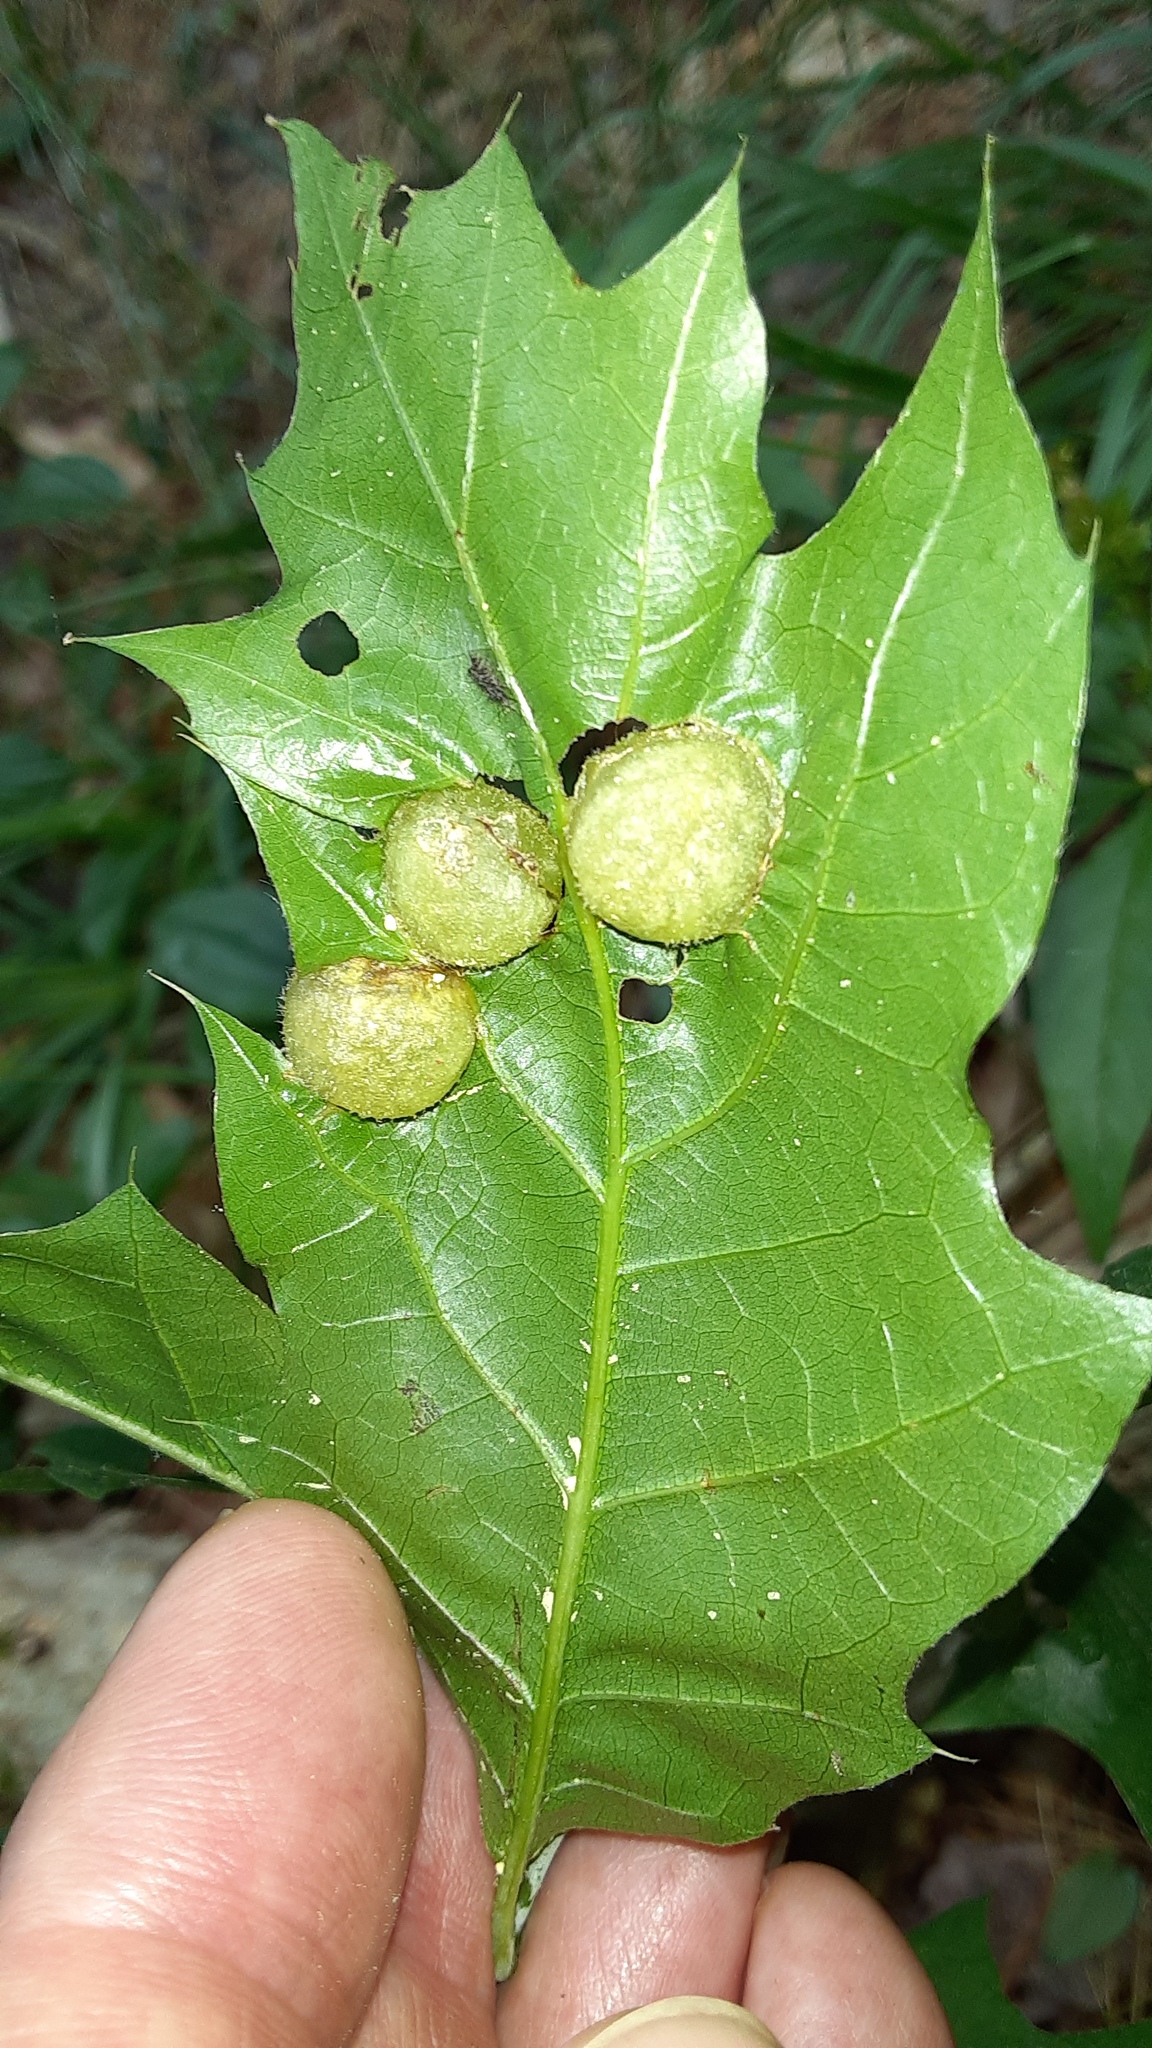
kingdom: Animalia
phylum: Arthropoda
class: Insecta
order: Hymenoptera
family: Cynipidae
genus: Dryocosmus
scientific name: Dryocosmus quercuspalustris
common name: Succulent oak gall wasp
